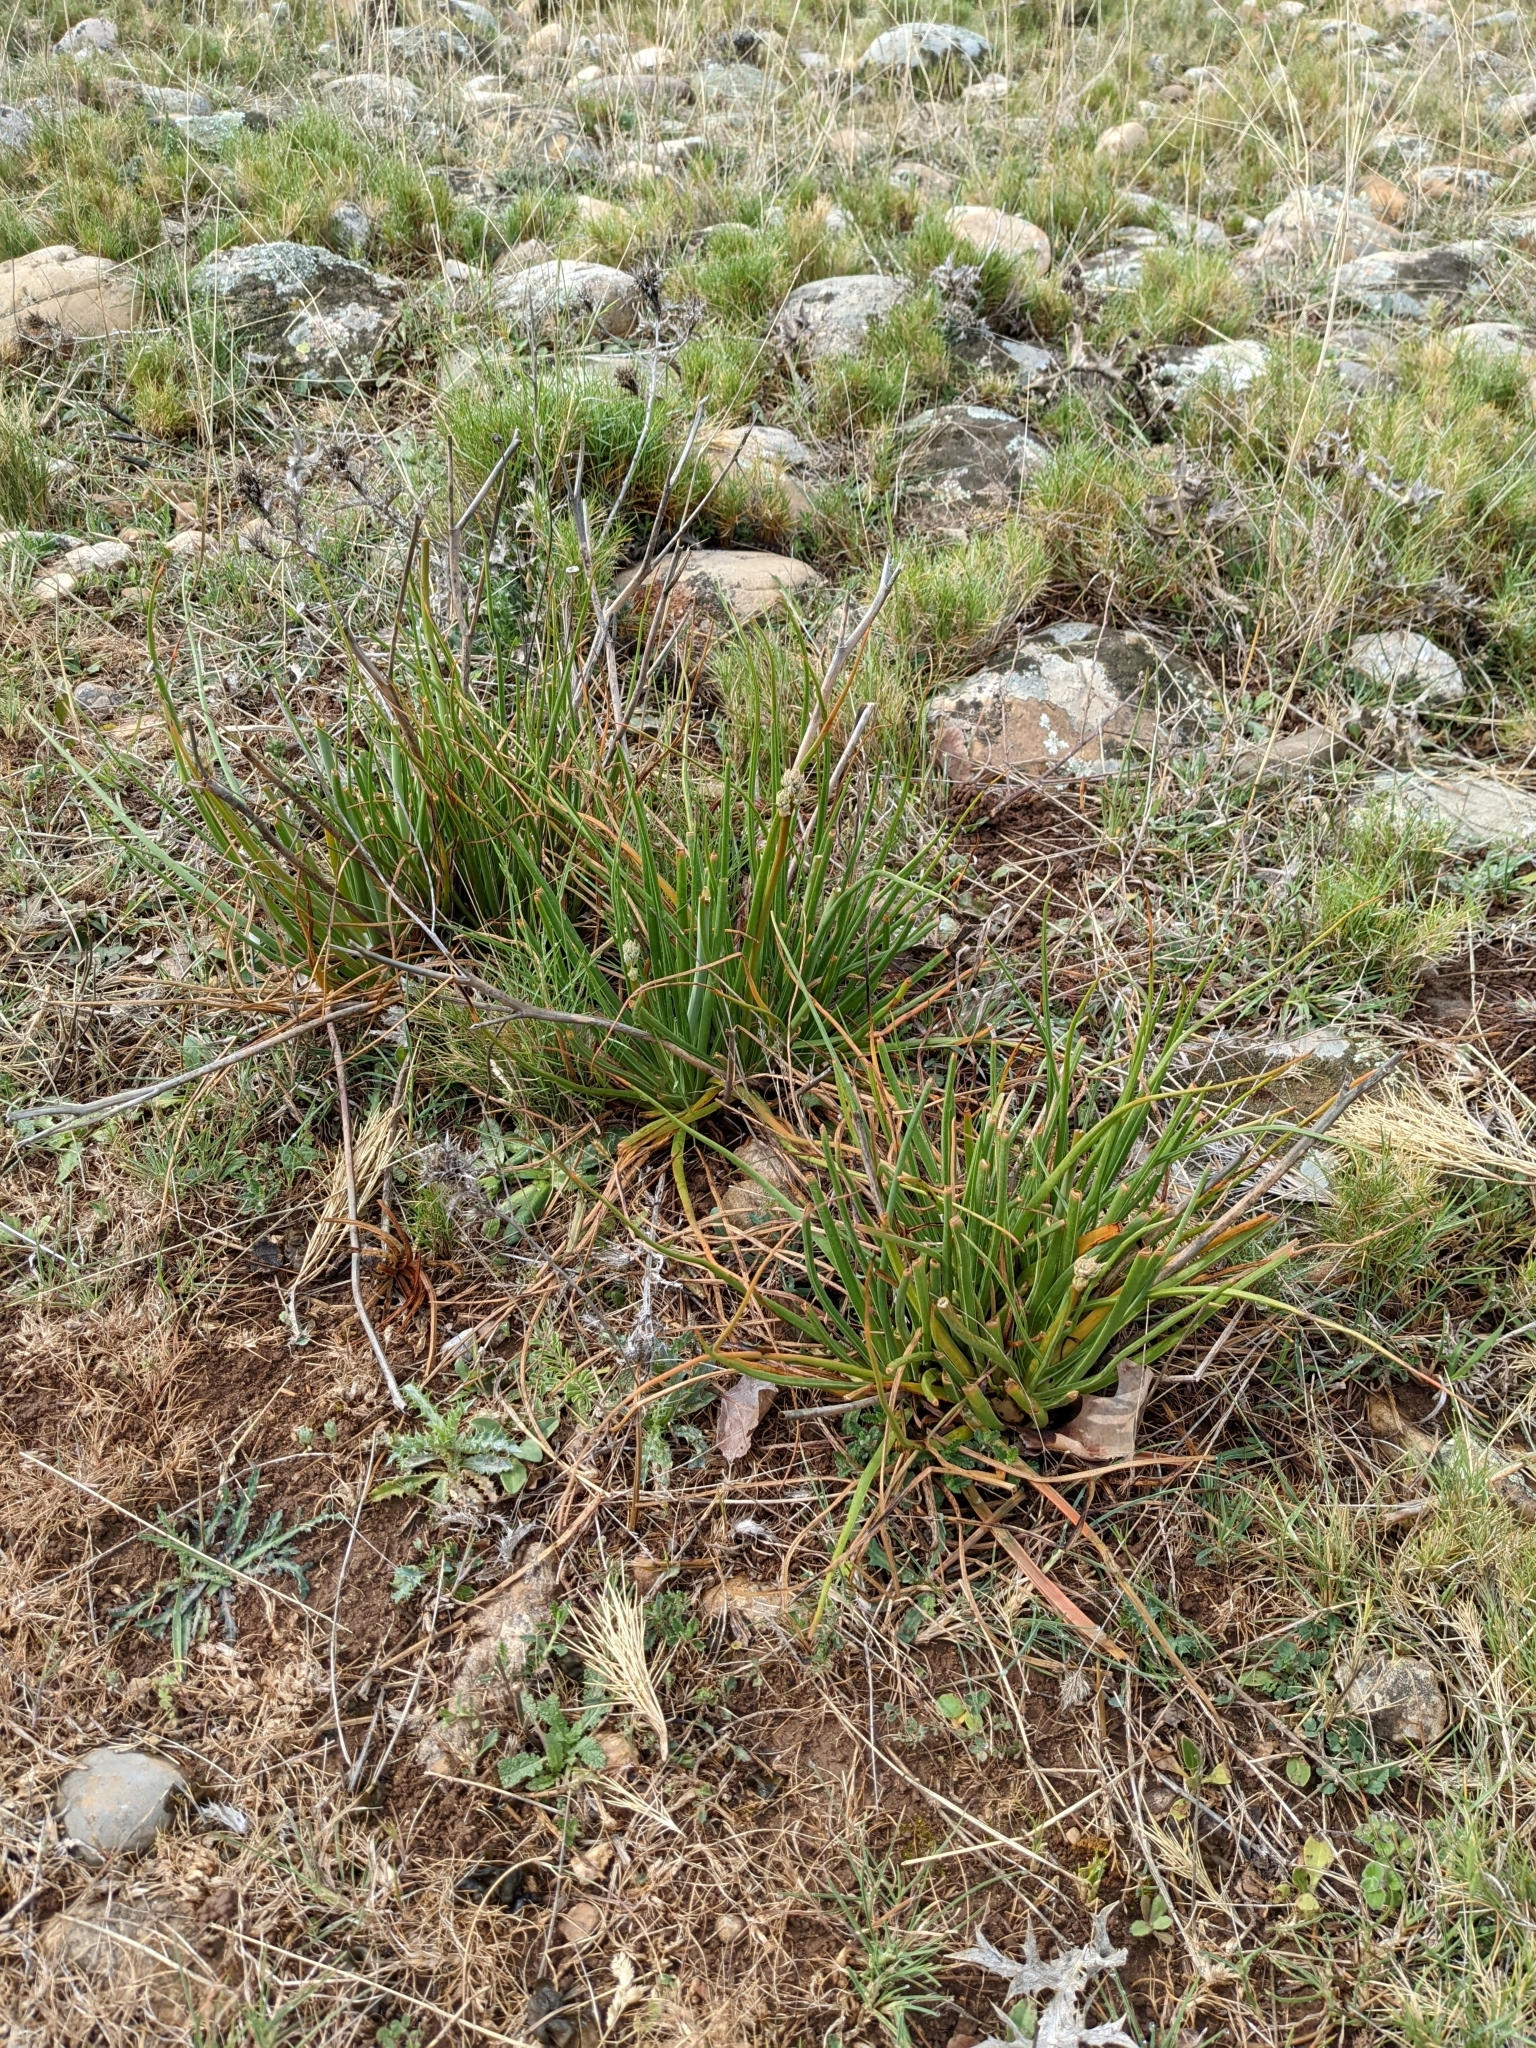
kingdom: Plantae
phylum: Tracheophyta
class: Liliopsida
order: Asparagales
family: Asphodelaceae
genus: Asphodelus
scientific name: Asphodelus ayardii
